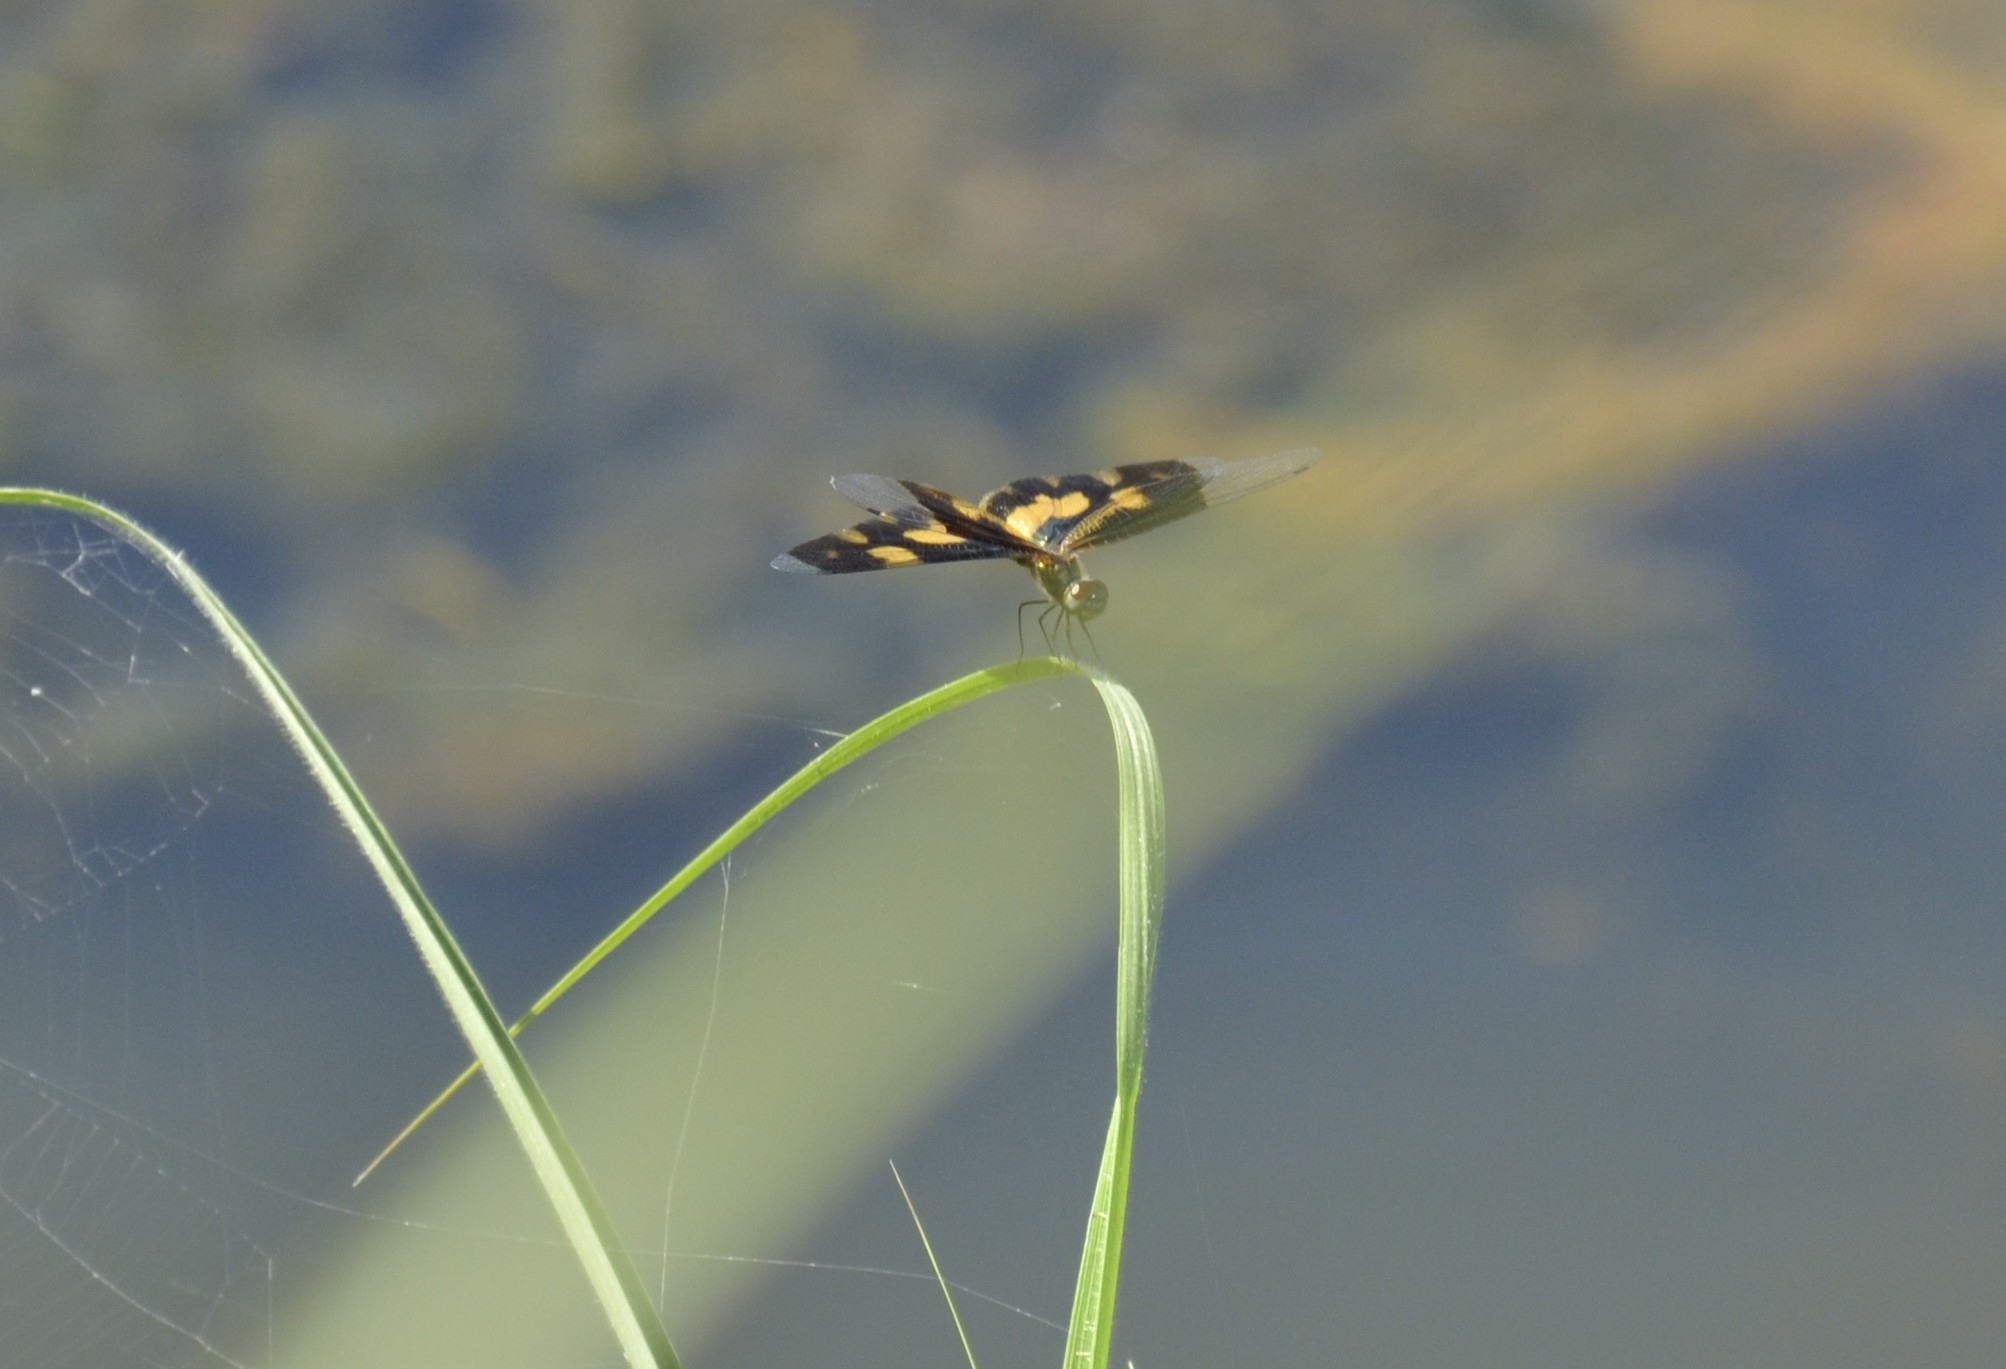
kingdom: Animalia
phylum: Arthropoda
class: Insecta
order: Odonata
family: Libellulidae
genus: Rhyothemis
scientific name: Rhyothemis variegata
